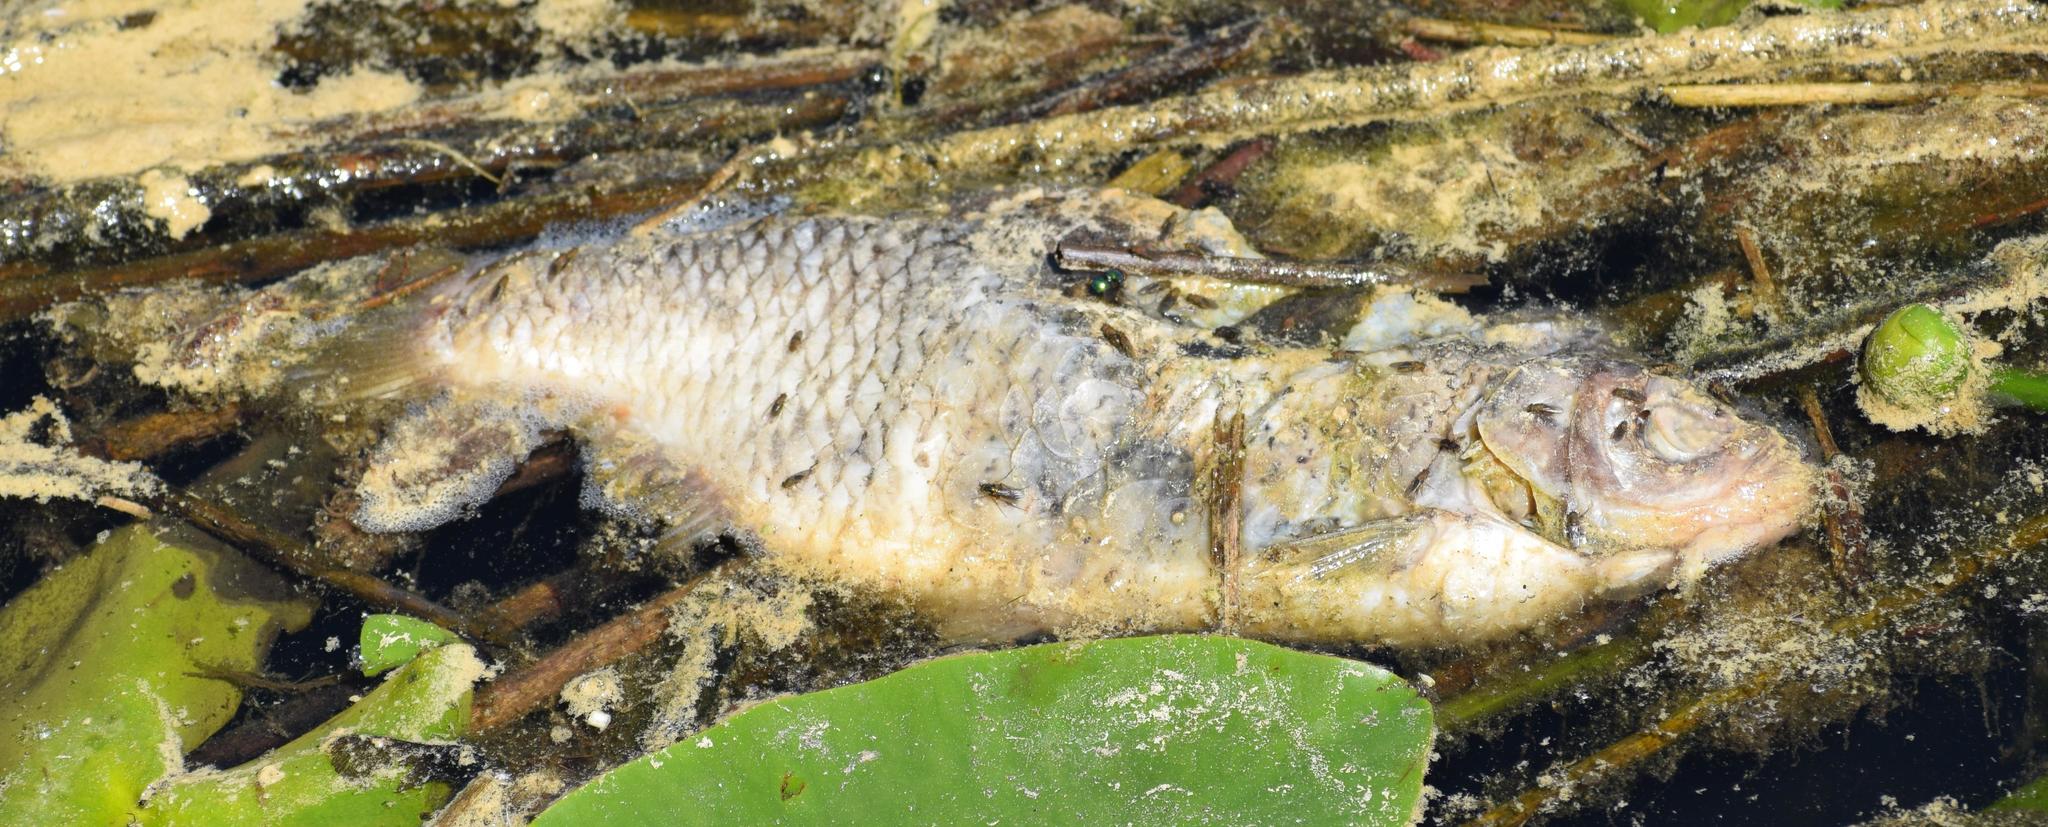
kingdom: Animalia
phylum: Chordata
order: Cypriniformes
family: Cyprinidae
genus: Cyprinus
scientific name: Cyprinus carpio
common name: Common carp
